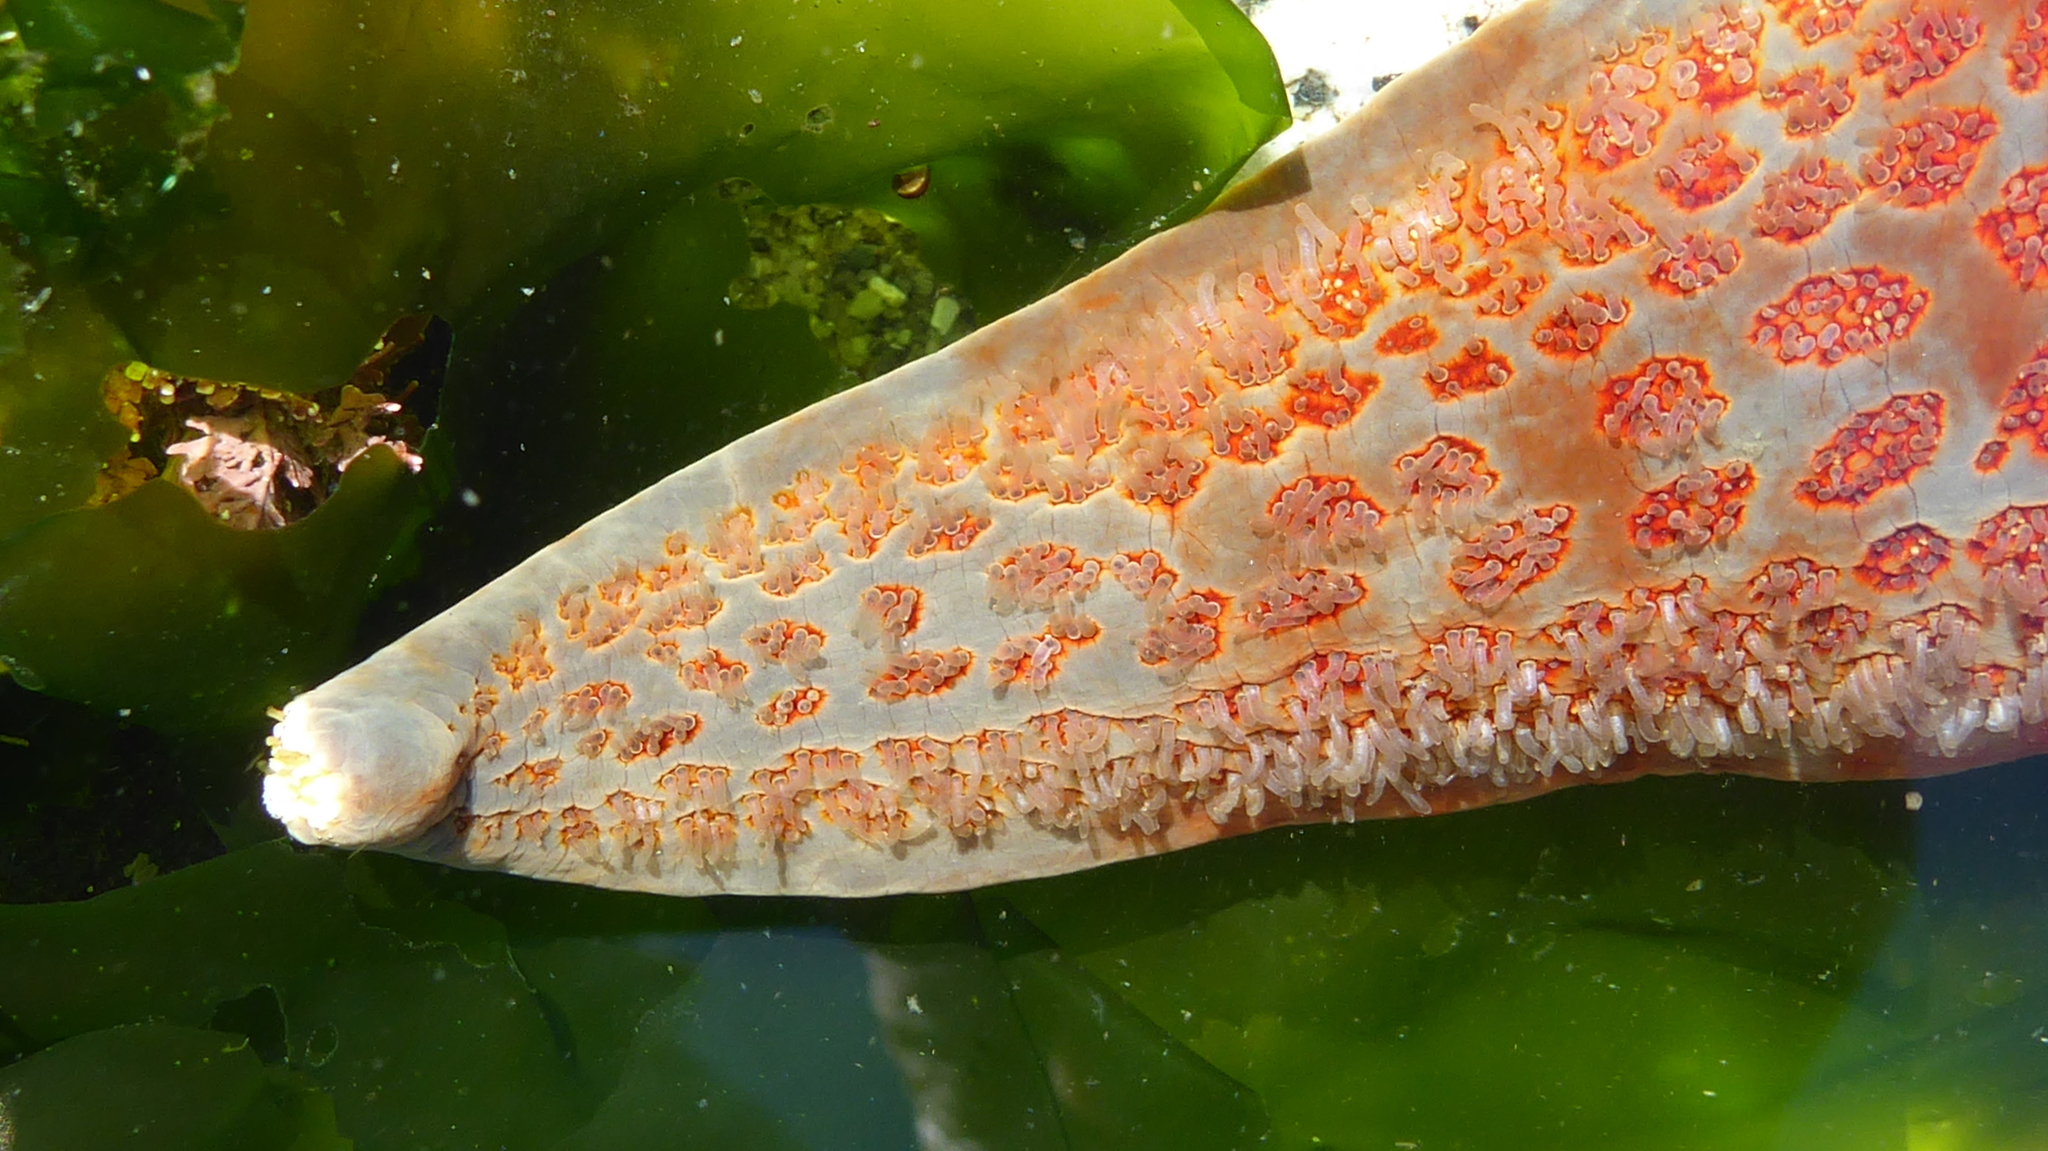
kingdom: Animalia
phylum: Echinodermata
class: Asteroidea
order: Valvatida
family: Asteropseidae
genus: Dermasterias
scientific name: Dermasterias imbricata
